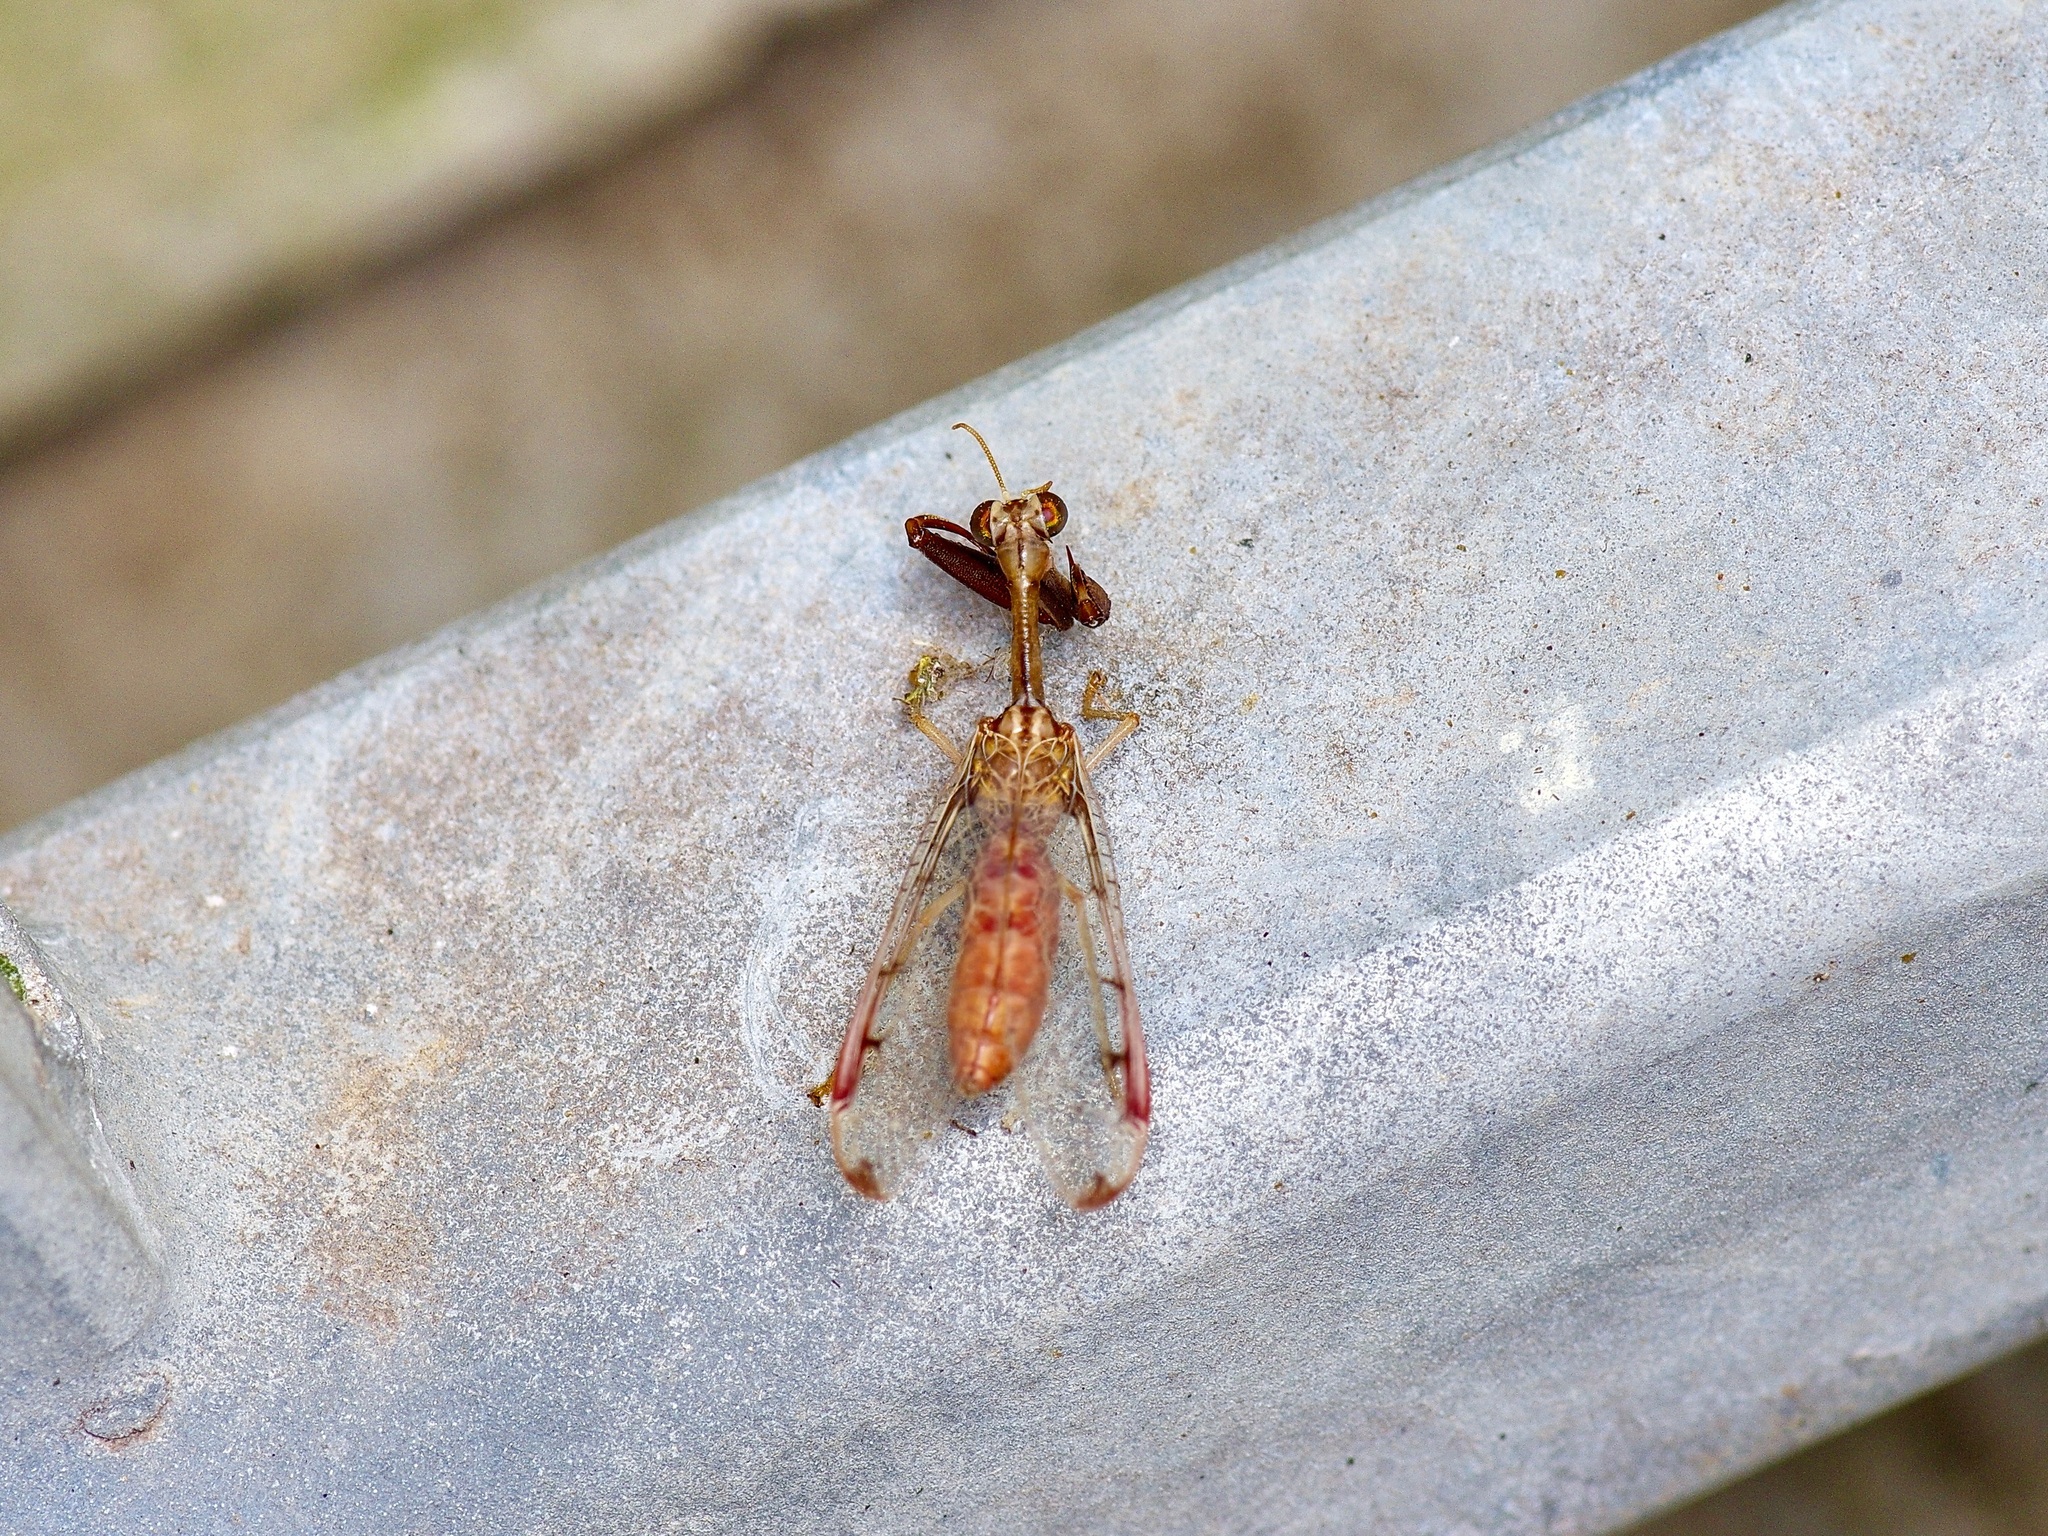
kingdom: Animalia
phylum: Arthropoda
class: Insecta
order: Neuroptera
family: Mantispidae
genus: Dicromantispa
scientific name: Dicromantispa interrupta
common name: Four-spotted mantidfly
